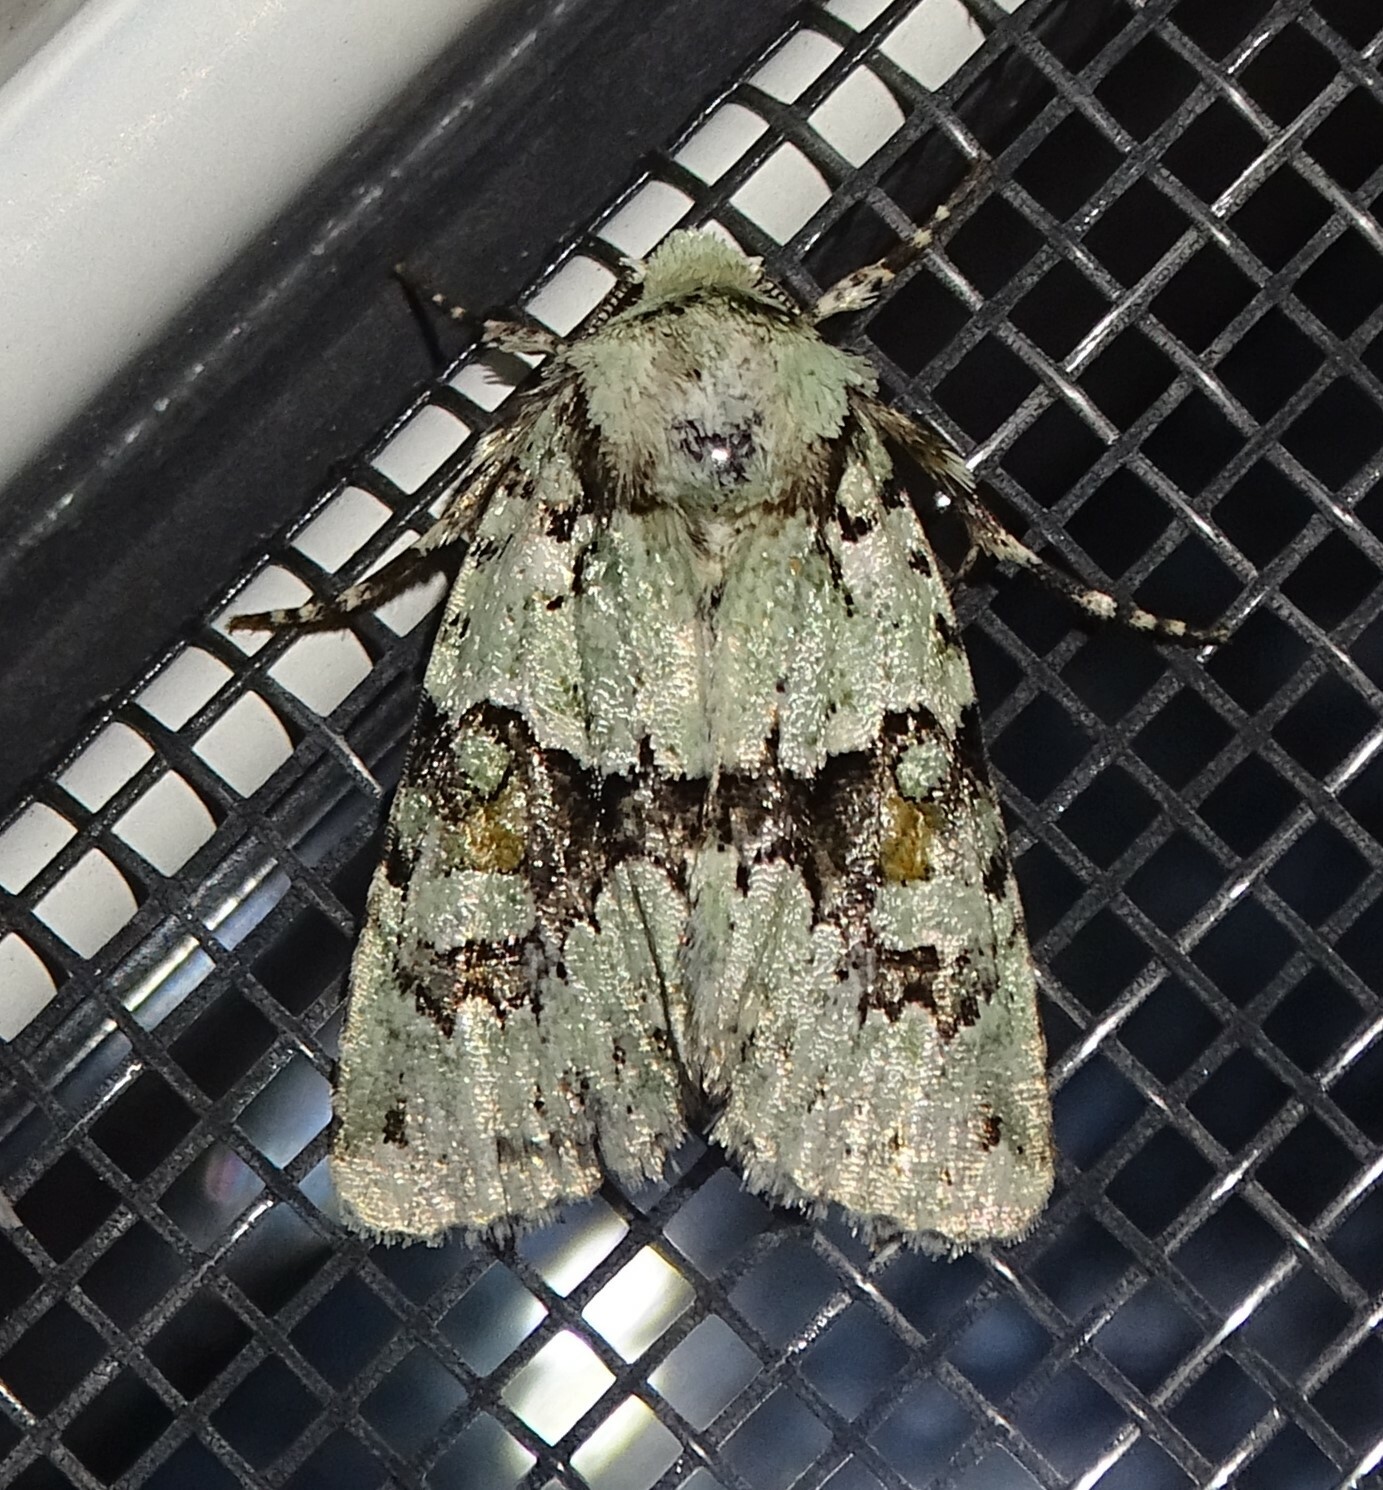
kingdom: Animalia
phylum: Arthropoda
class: Insecta
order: Lepidoptera
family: Noctuidae
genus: Lacinipolia
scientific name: Lacinipolia implicata
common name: Implicit arches
